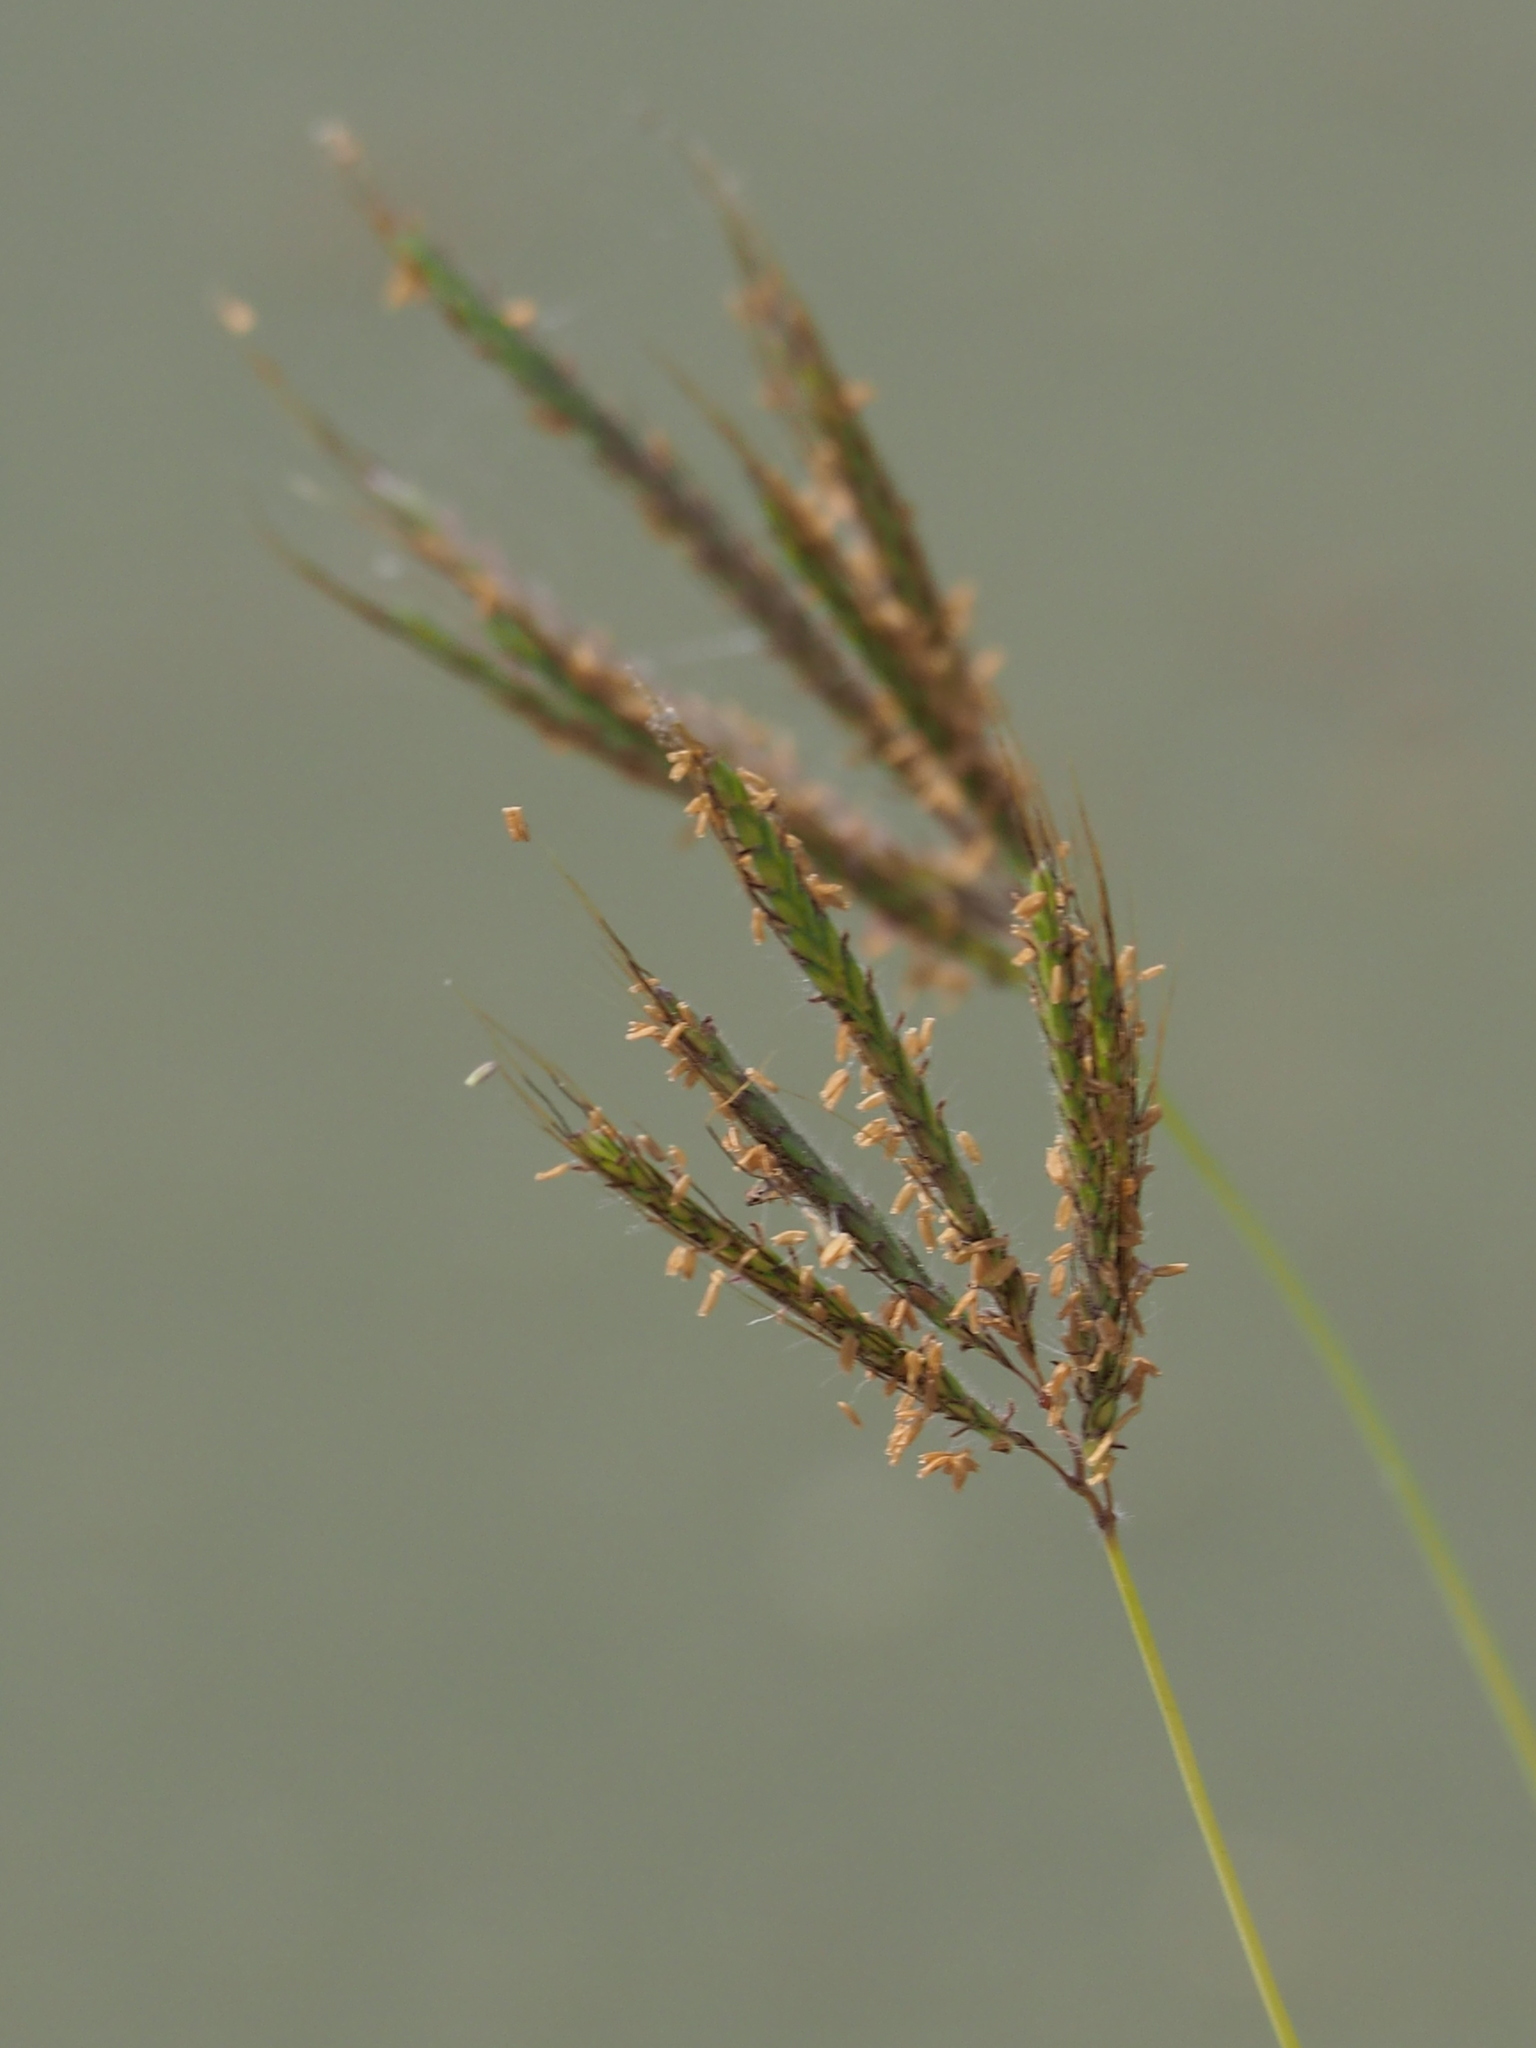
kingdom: Plantae
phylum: Tracheophyta
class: Liliopsida
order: Poales
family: Poaceae
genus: Dichanthium
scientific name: Dichanthium annulatum
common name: Kleberg's bluestem
